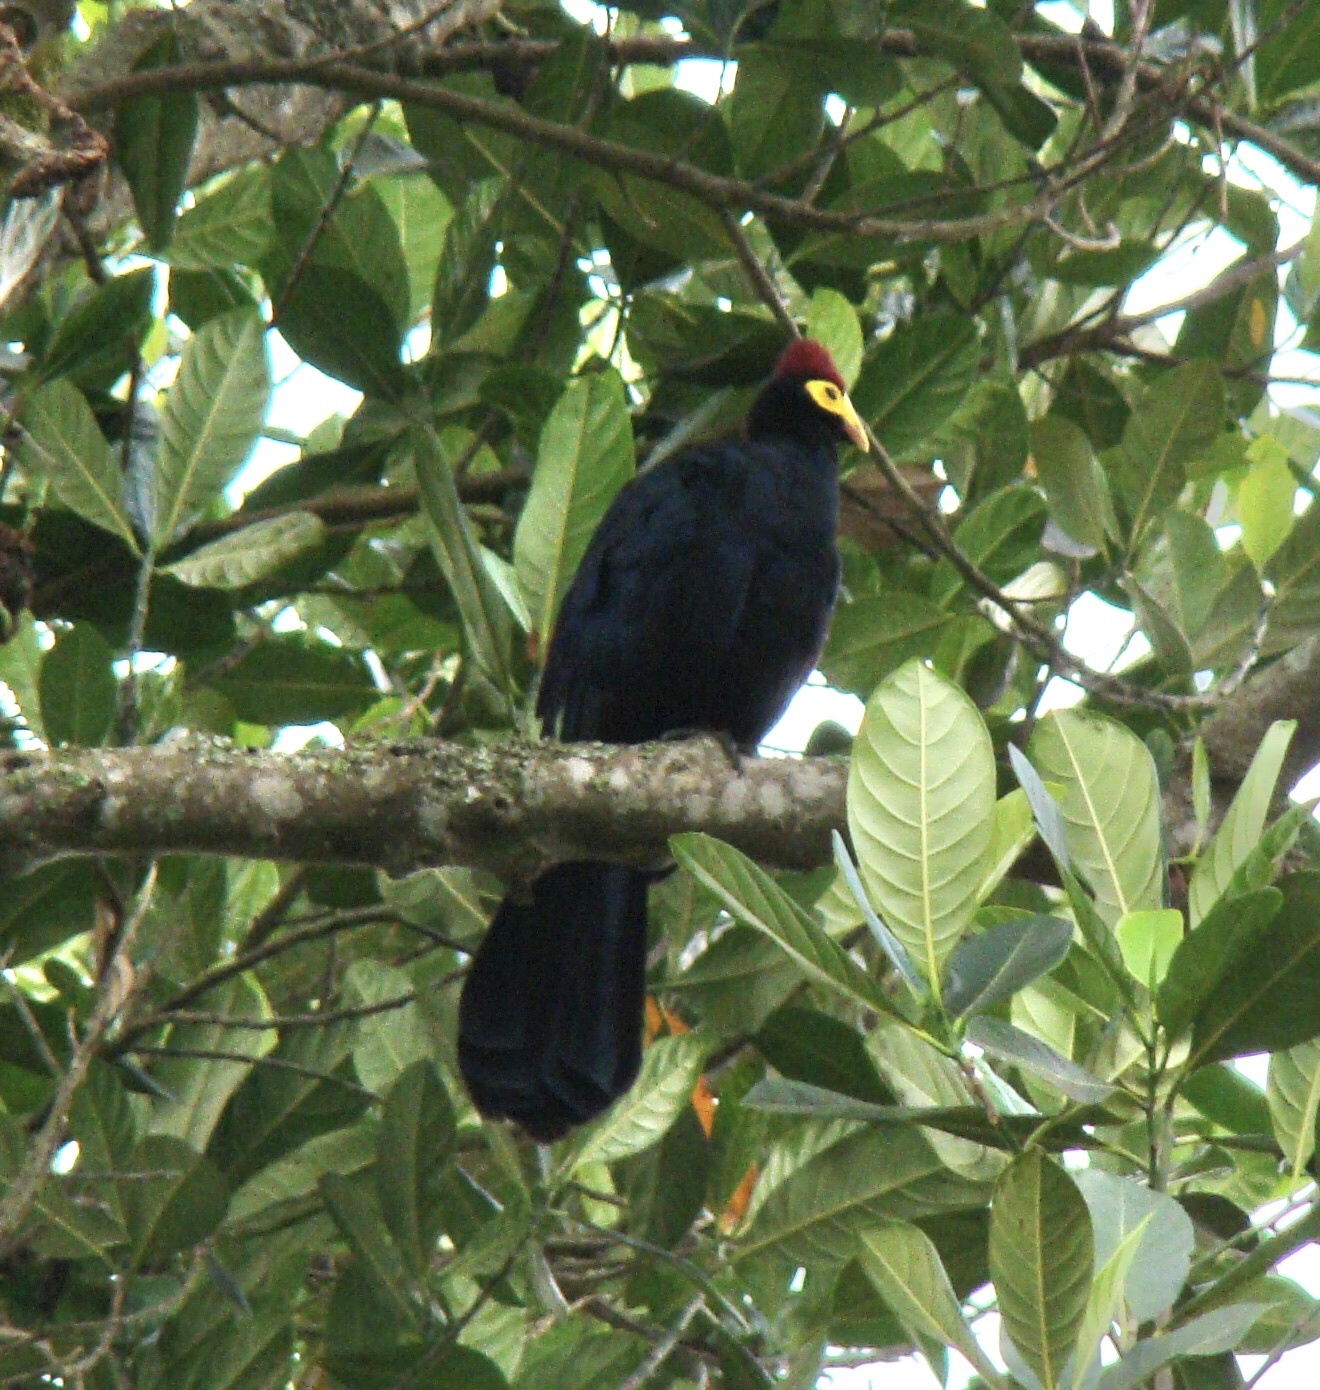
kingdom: Animalia
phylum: Chordata
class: Aves
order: Musophagiformes
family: Musophagidae
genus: Musophaga
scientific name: Musophaga rossae
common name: Ross's turaco
